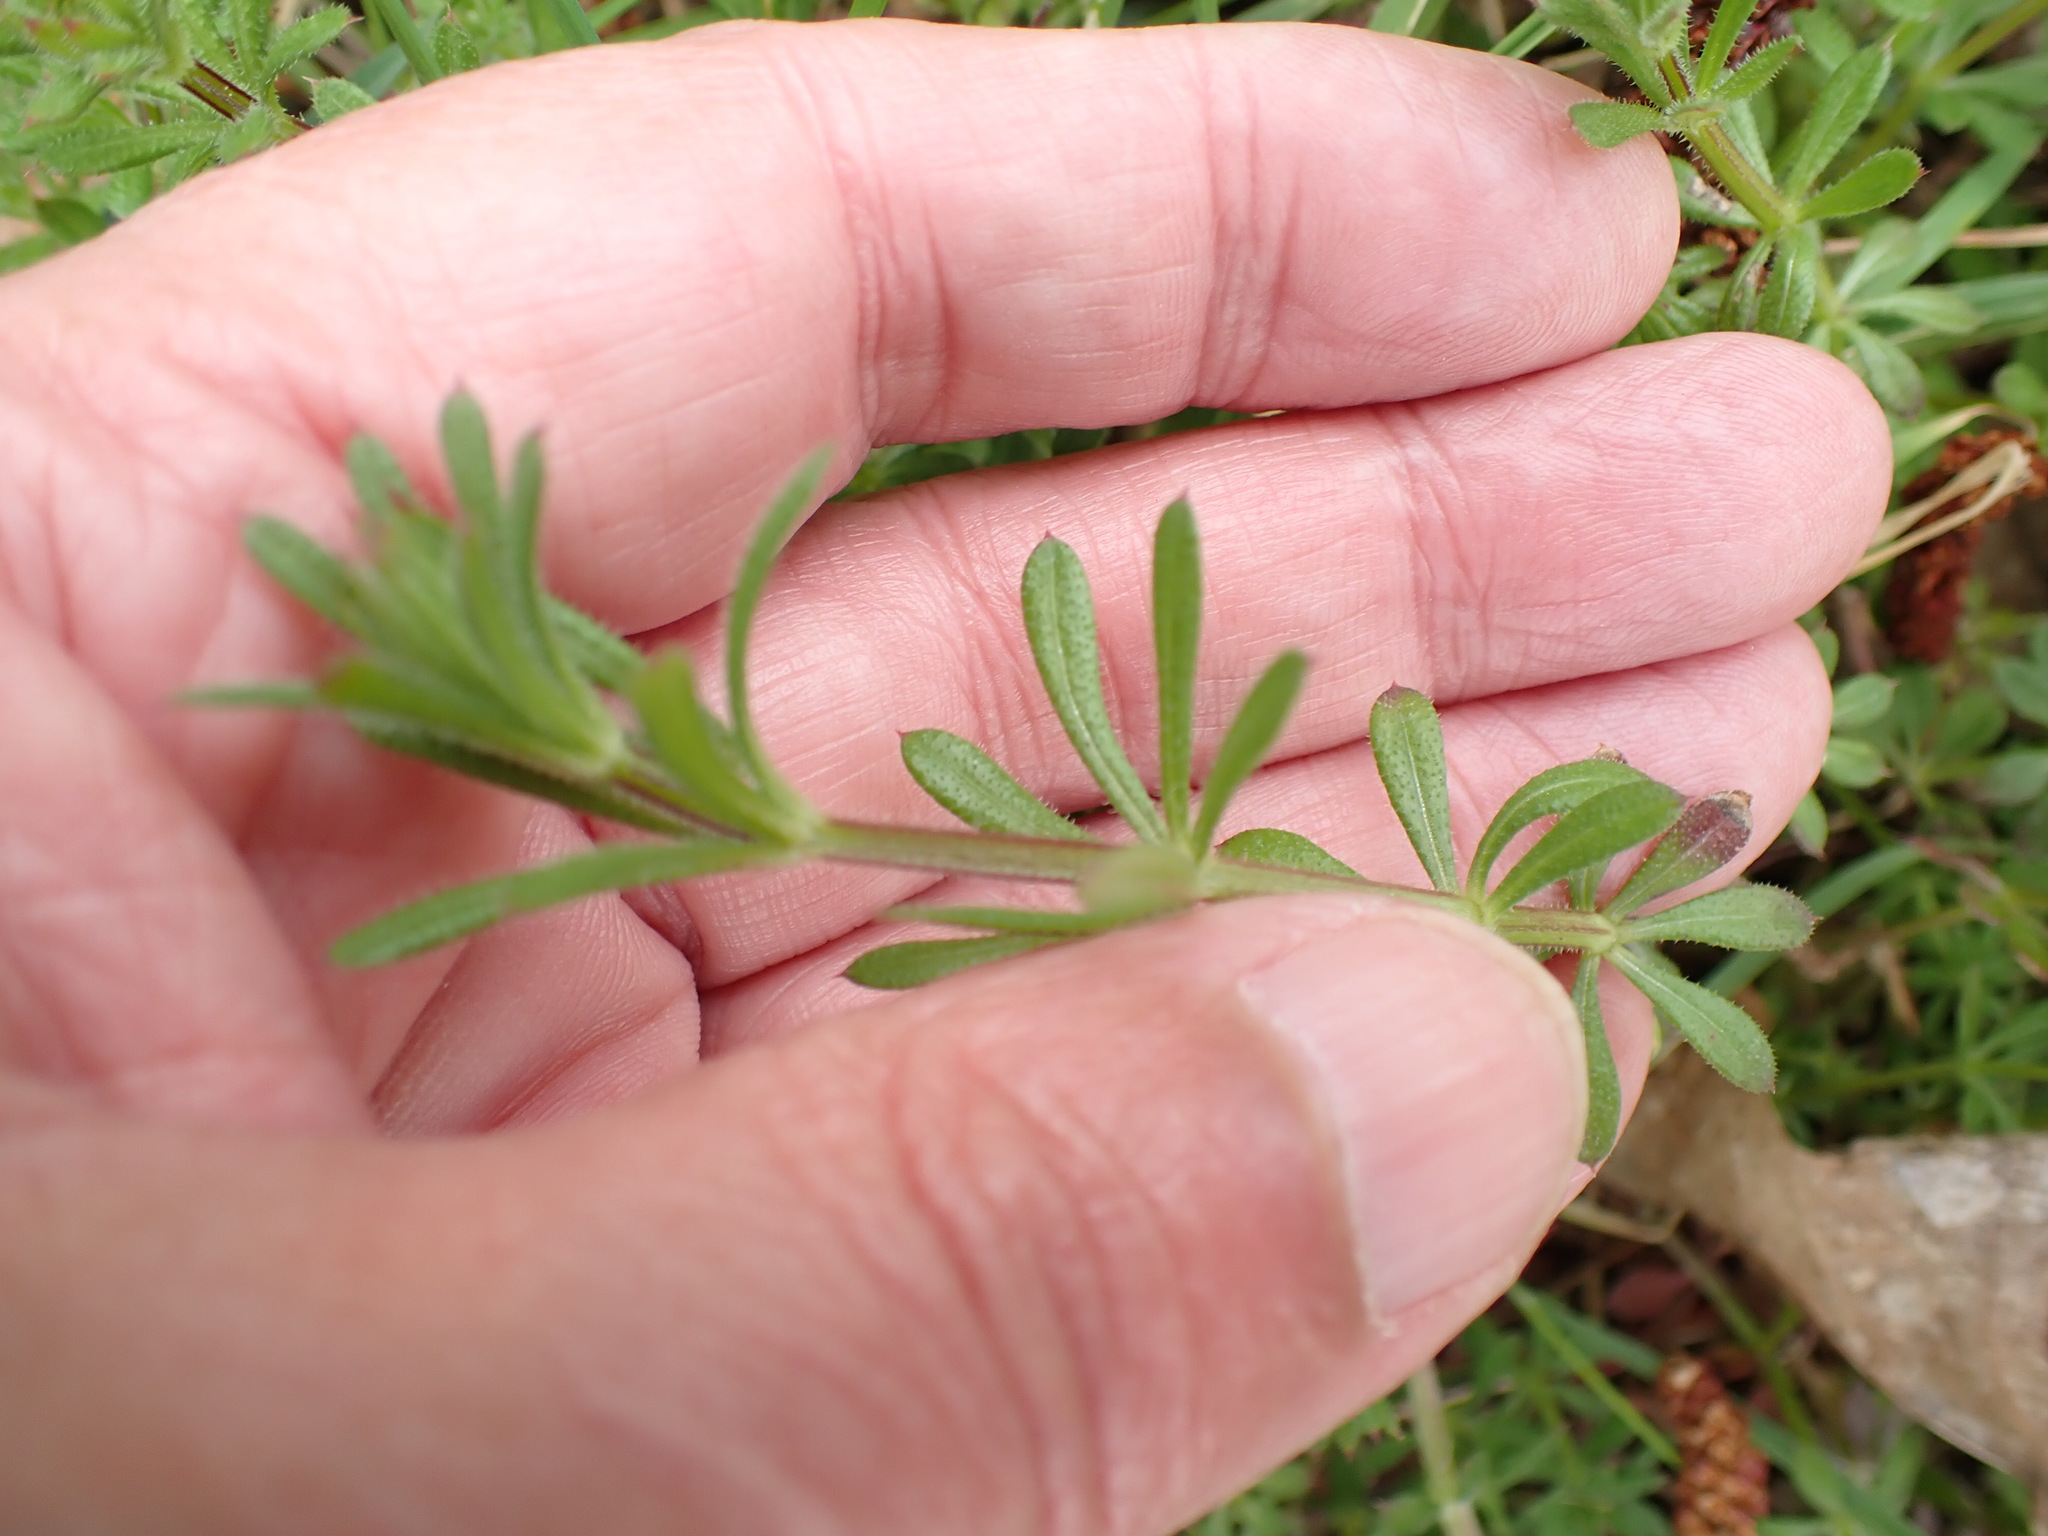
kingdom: Plantae
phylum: Tracheophyta
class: Magnoliopsida
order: Gentianales
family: Rubiaceae
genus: Galium
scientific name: Galium aparine
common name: Cleavers
